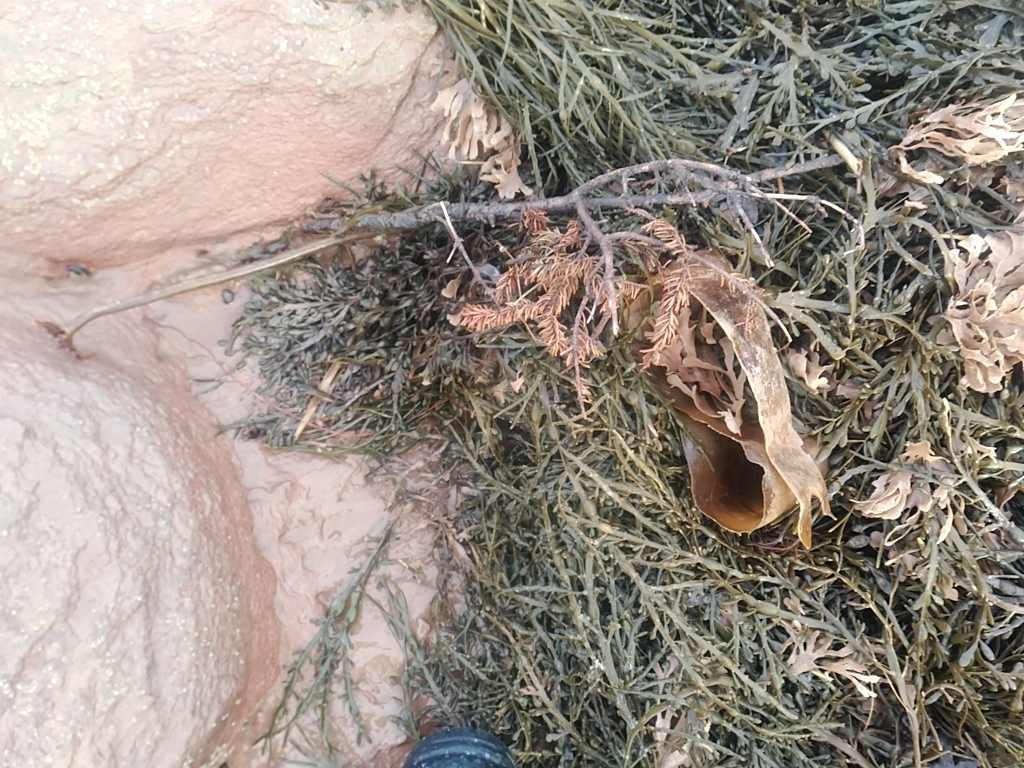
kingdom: Chromista
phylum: Ochrophyta
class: Phaeophyceae
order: Laminariales
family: Laminariaceae
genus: Saccharina
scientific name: Saccharina latissima
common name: Poor man's weather glass
